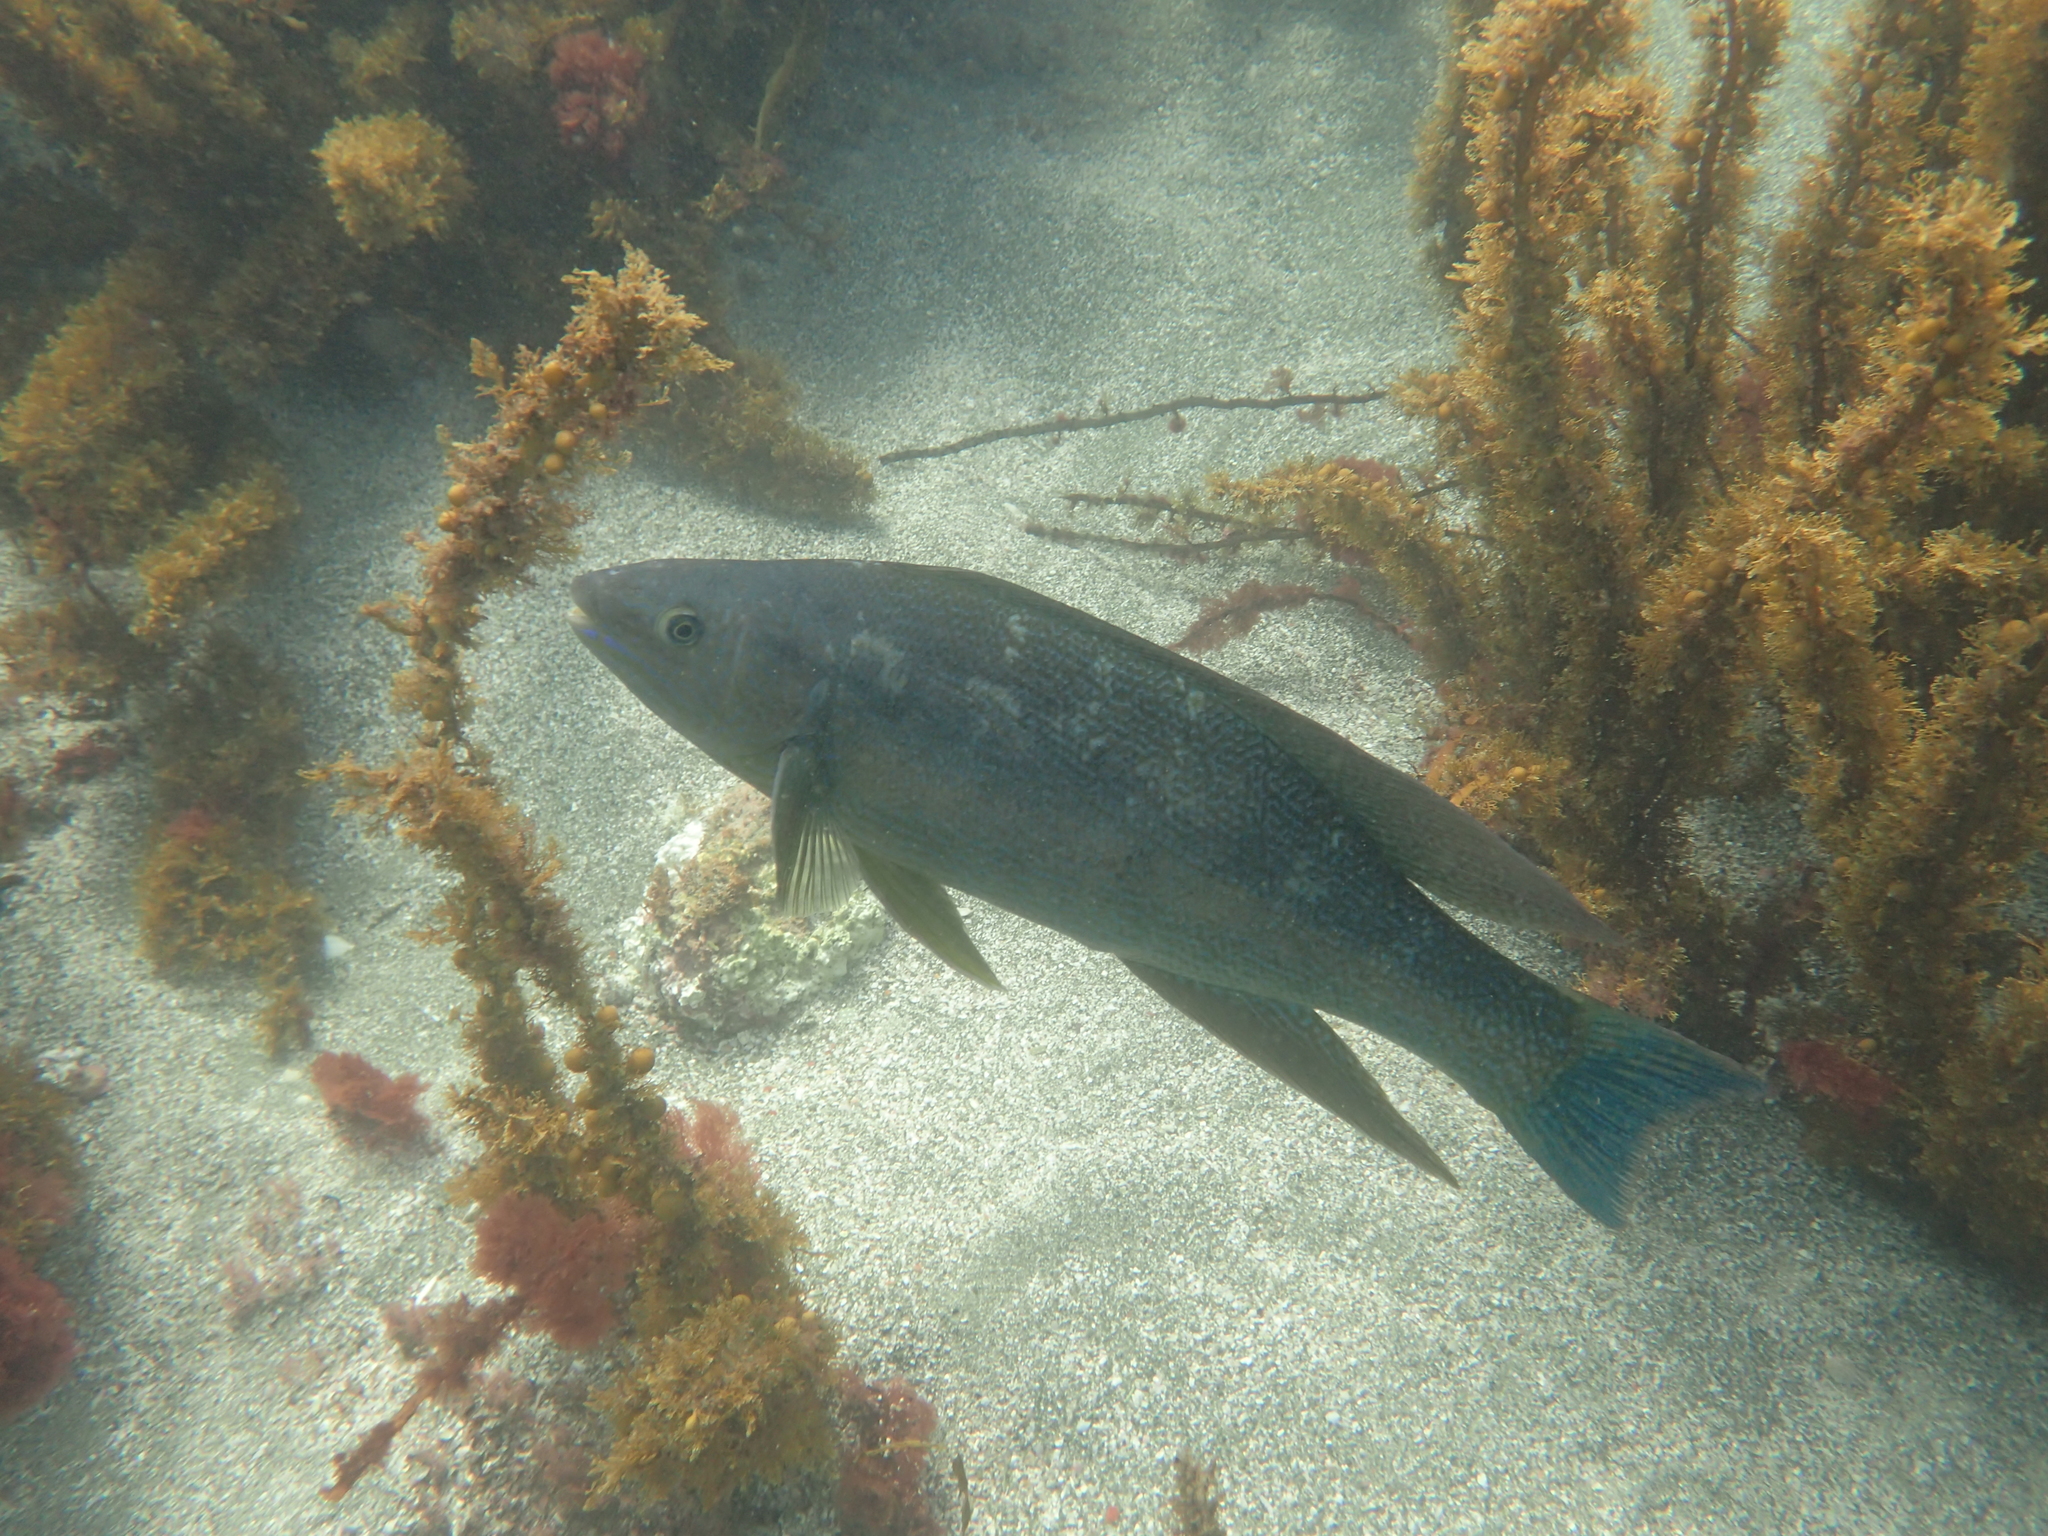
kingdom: Animalia
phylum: Chordata
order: Perciformes
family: Odacidae
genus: Odax
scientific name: Odax pullus
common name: Butterfish
